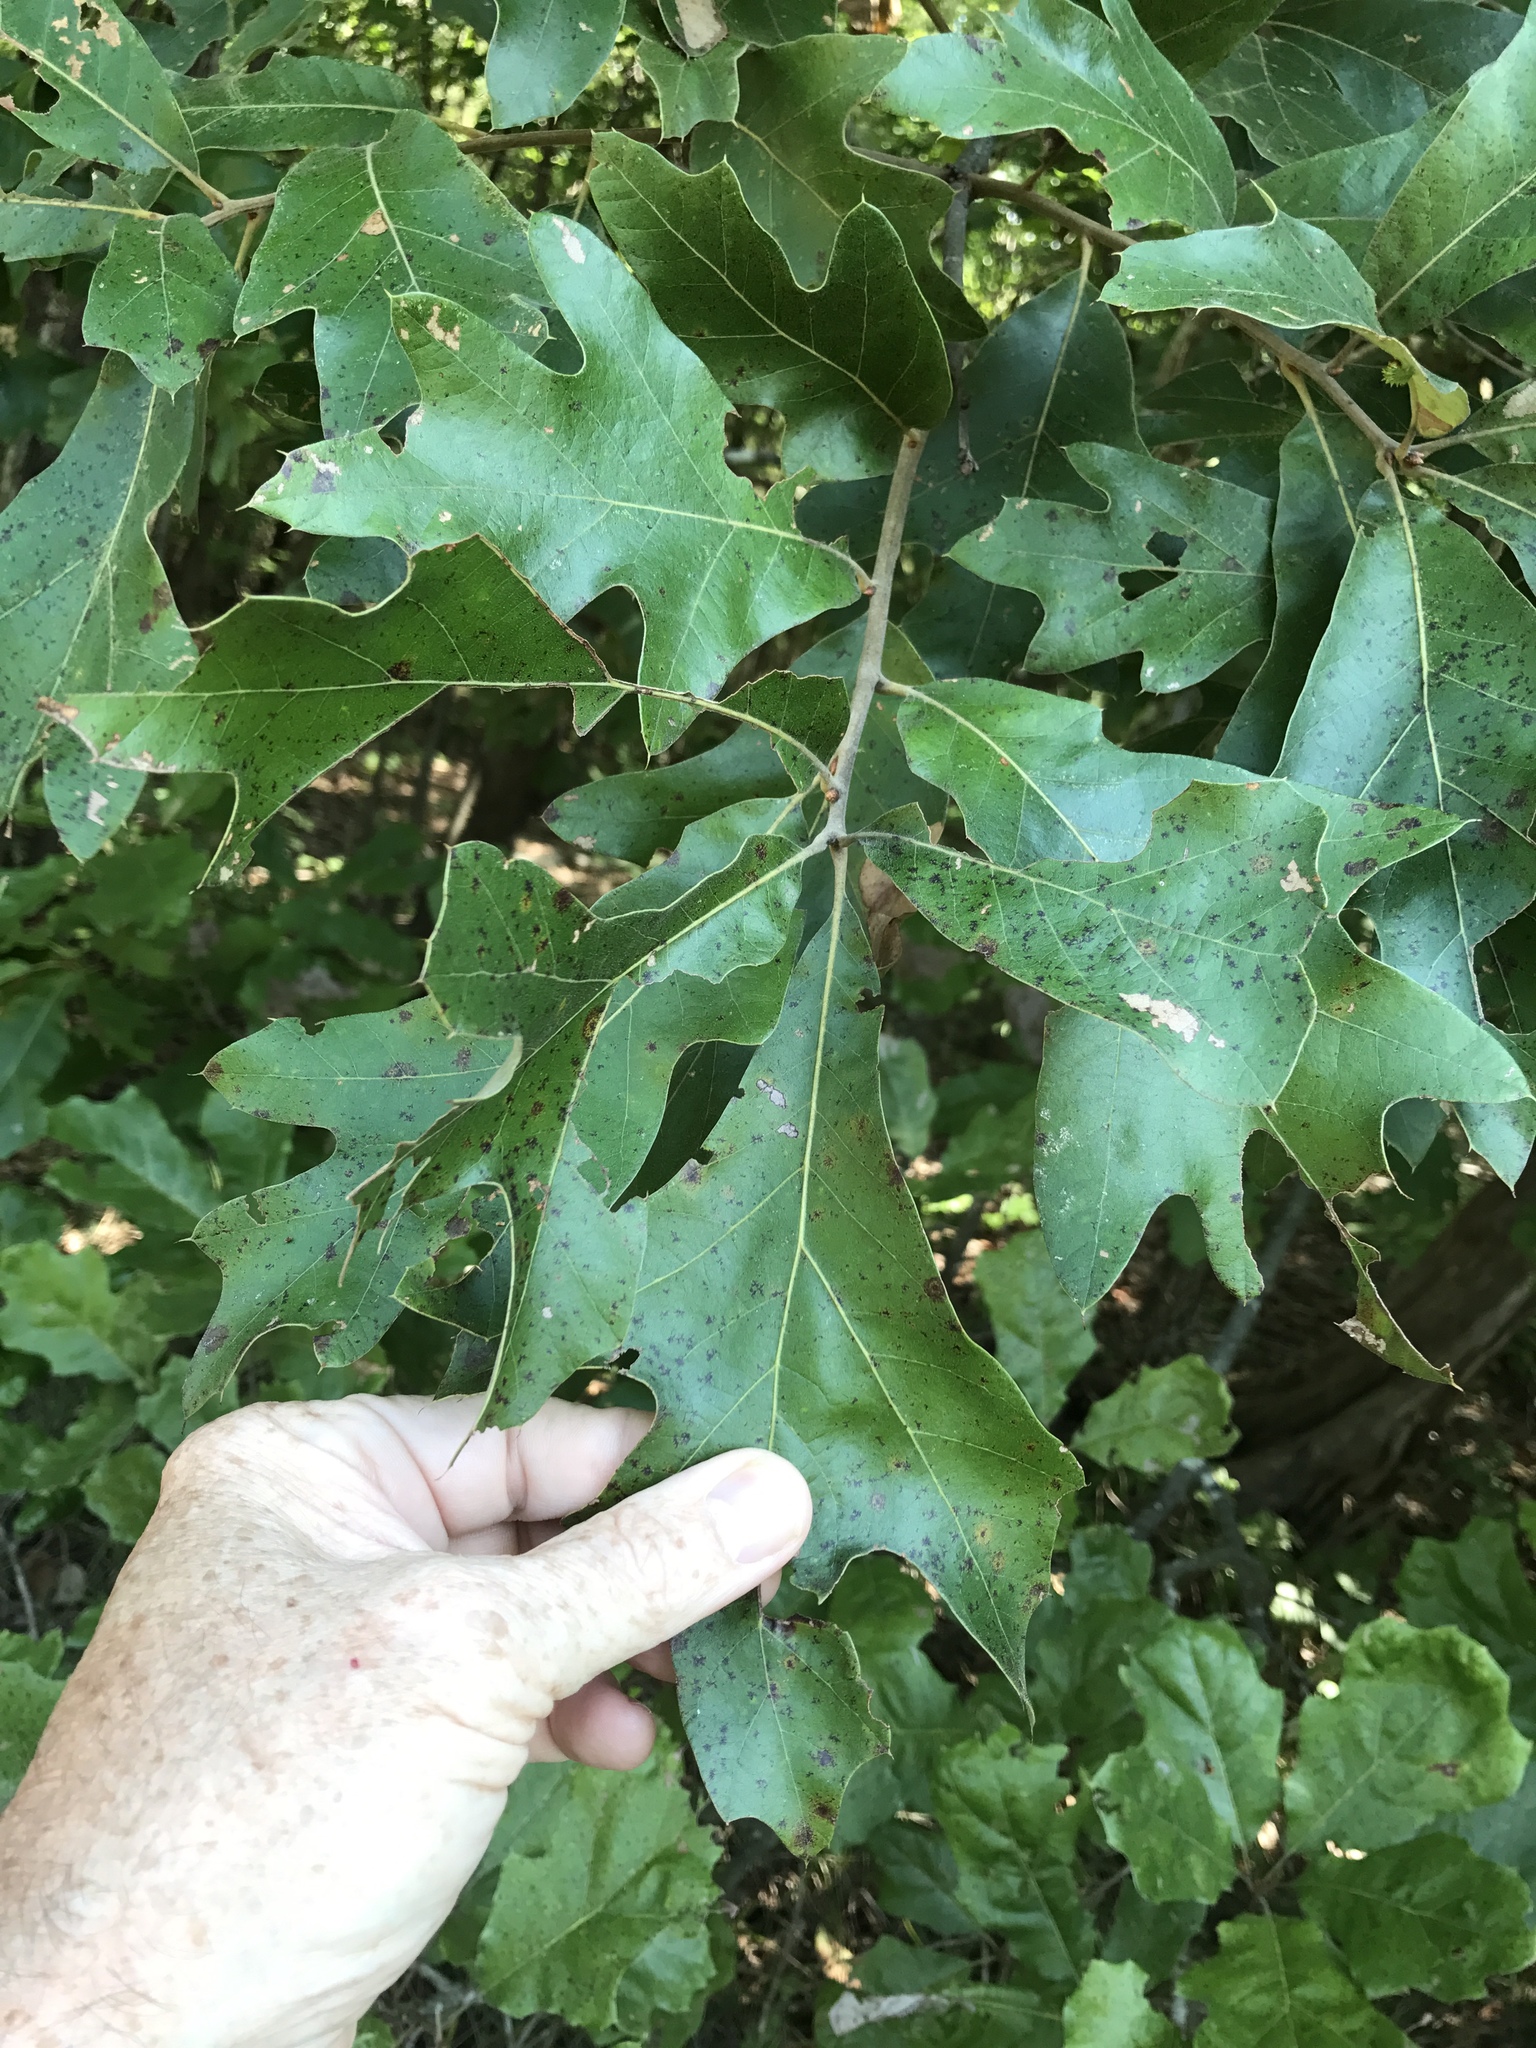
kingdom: Plantae
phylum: Tracheophyta
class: Magnoliopsida
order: Fagales
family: Fagaceae
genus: Quercus
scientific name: Quercus falcata
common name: Southern red oak
